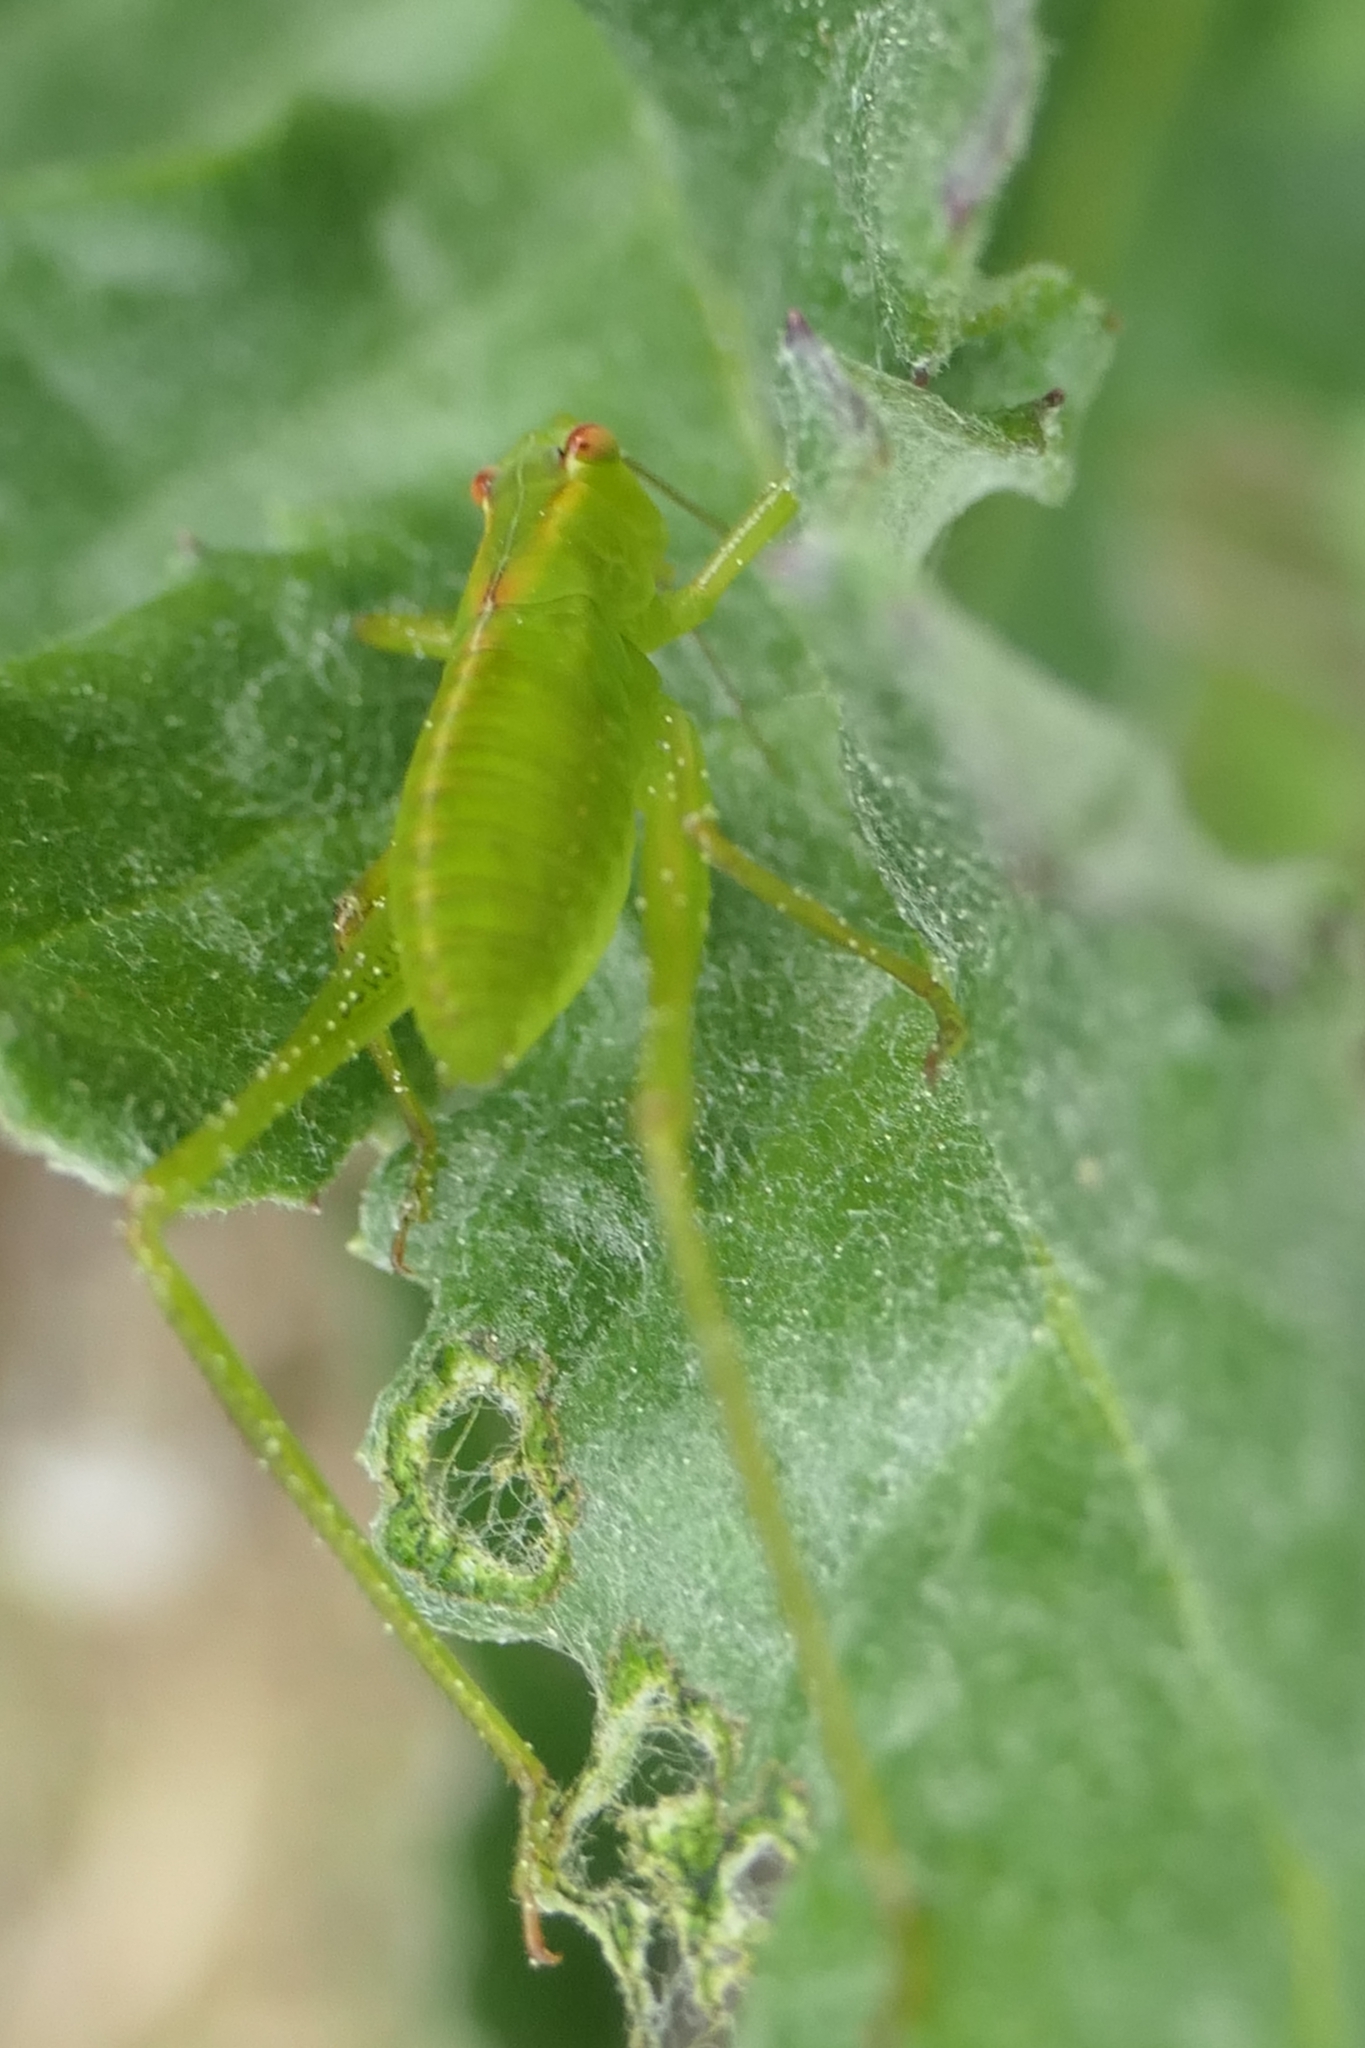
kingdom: Animalia
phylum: Arthropoda
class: Insecta
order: Orthoptera
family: Tettigoniidae
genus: Caedicia
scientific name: Caedicia simplex
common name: Common garden katydid
